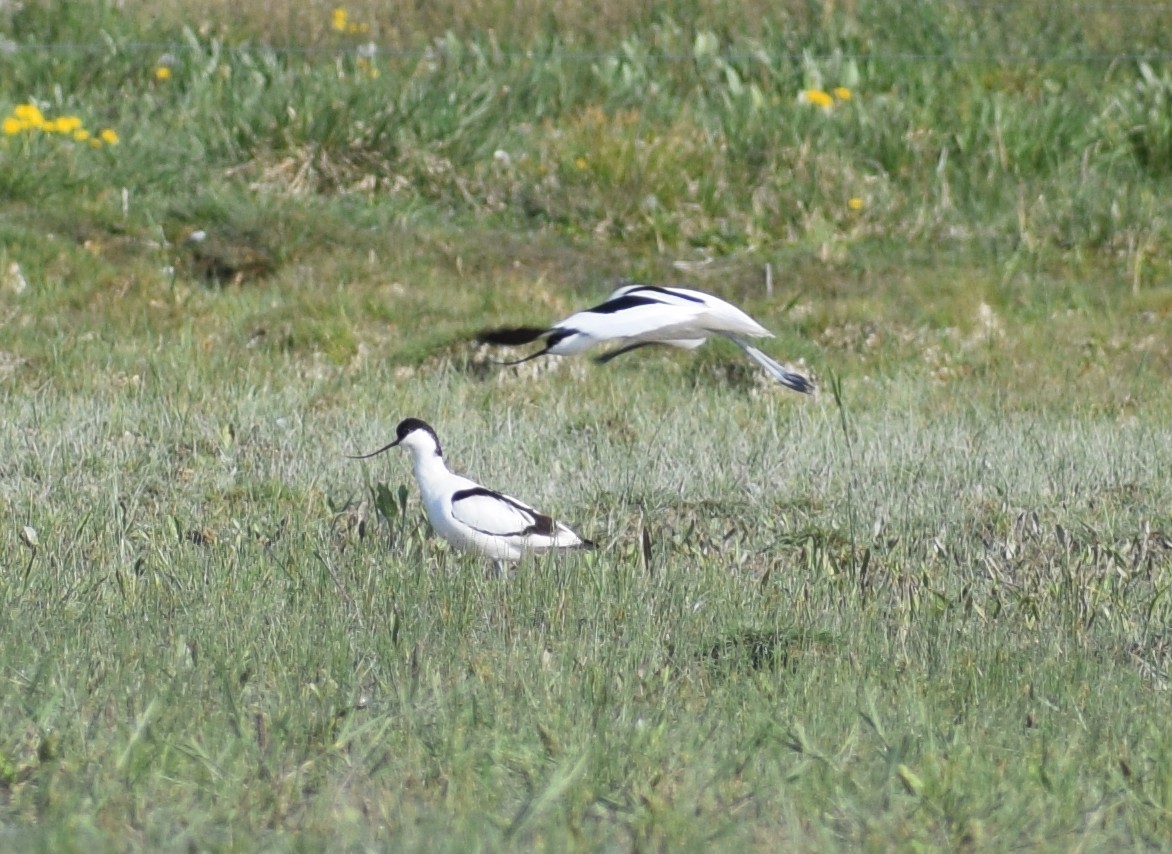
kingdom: Animalia
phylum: Chordata
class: Aves
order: Charadriiformes
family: Recurvirostridae
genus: Recurvirostra
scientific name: Recurvirostra avosetta
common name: Pied avocet
